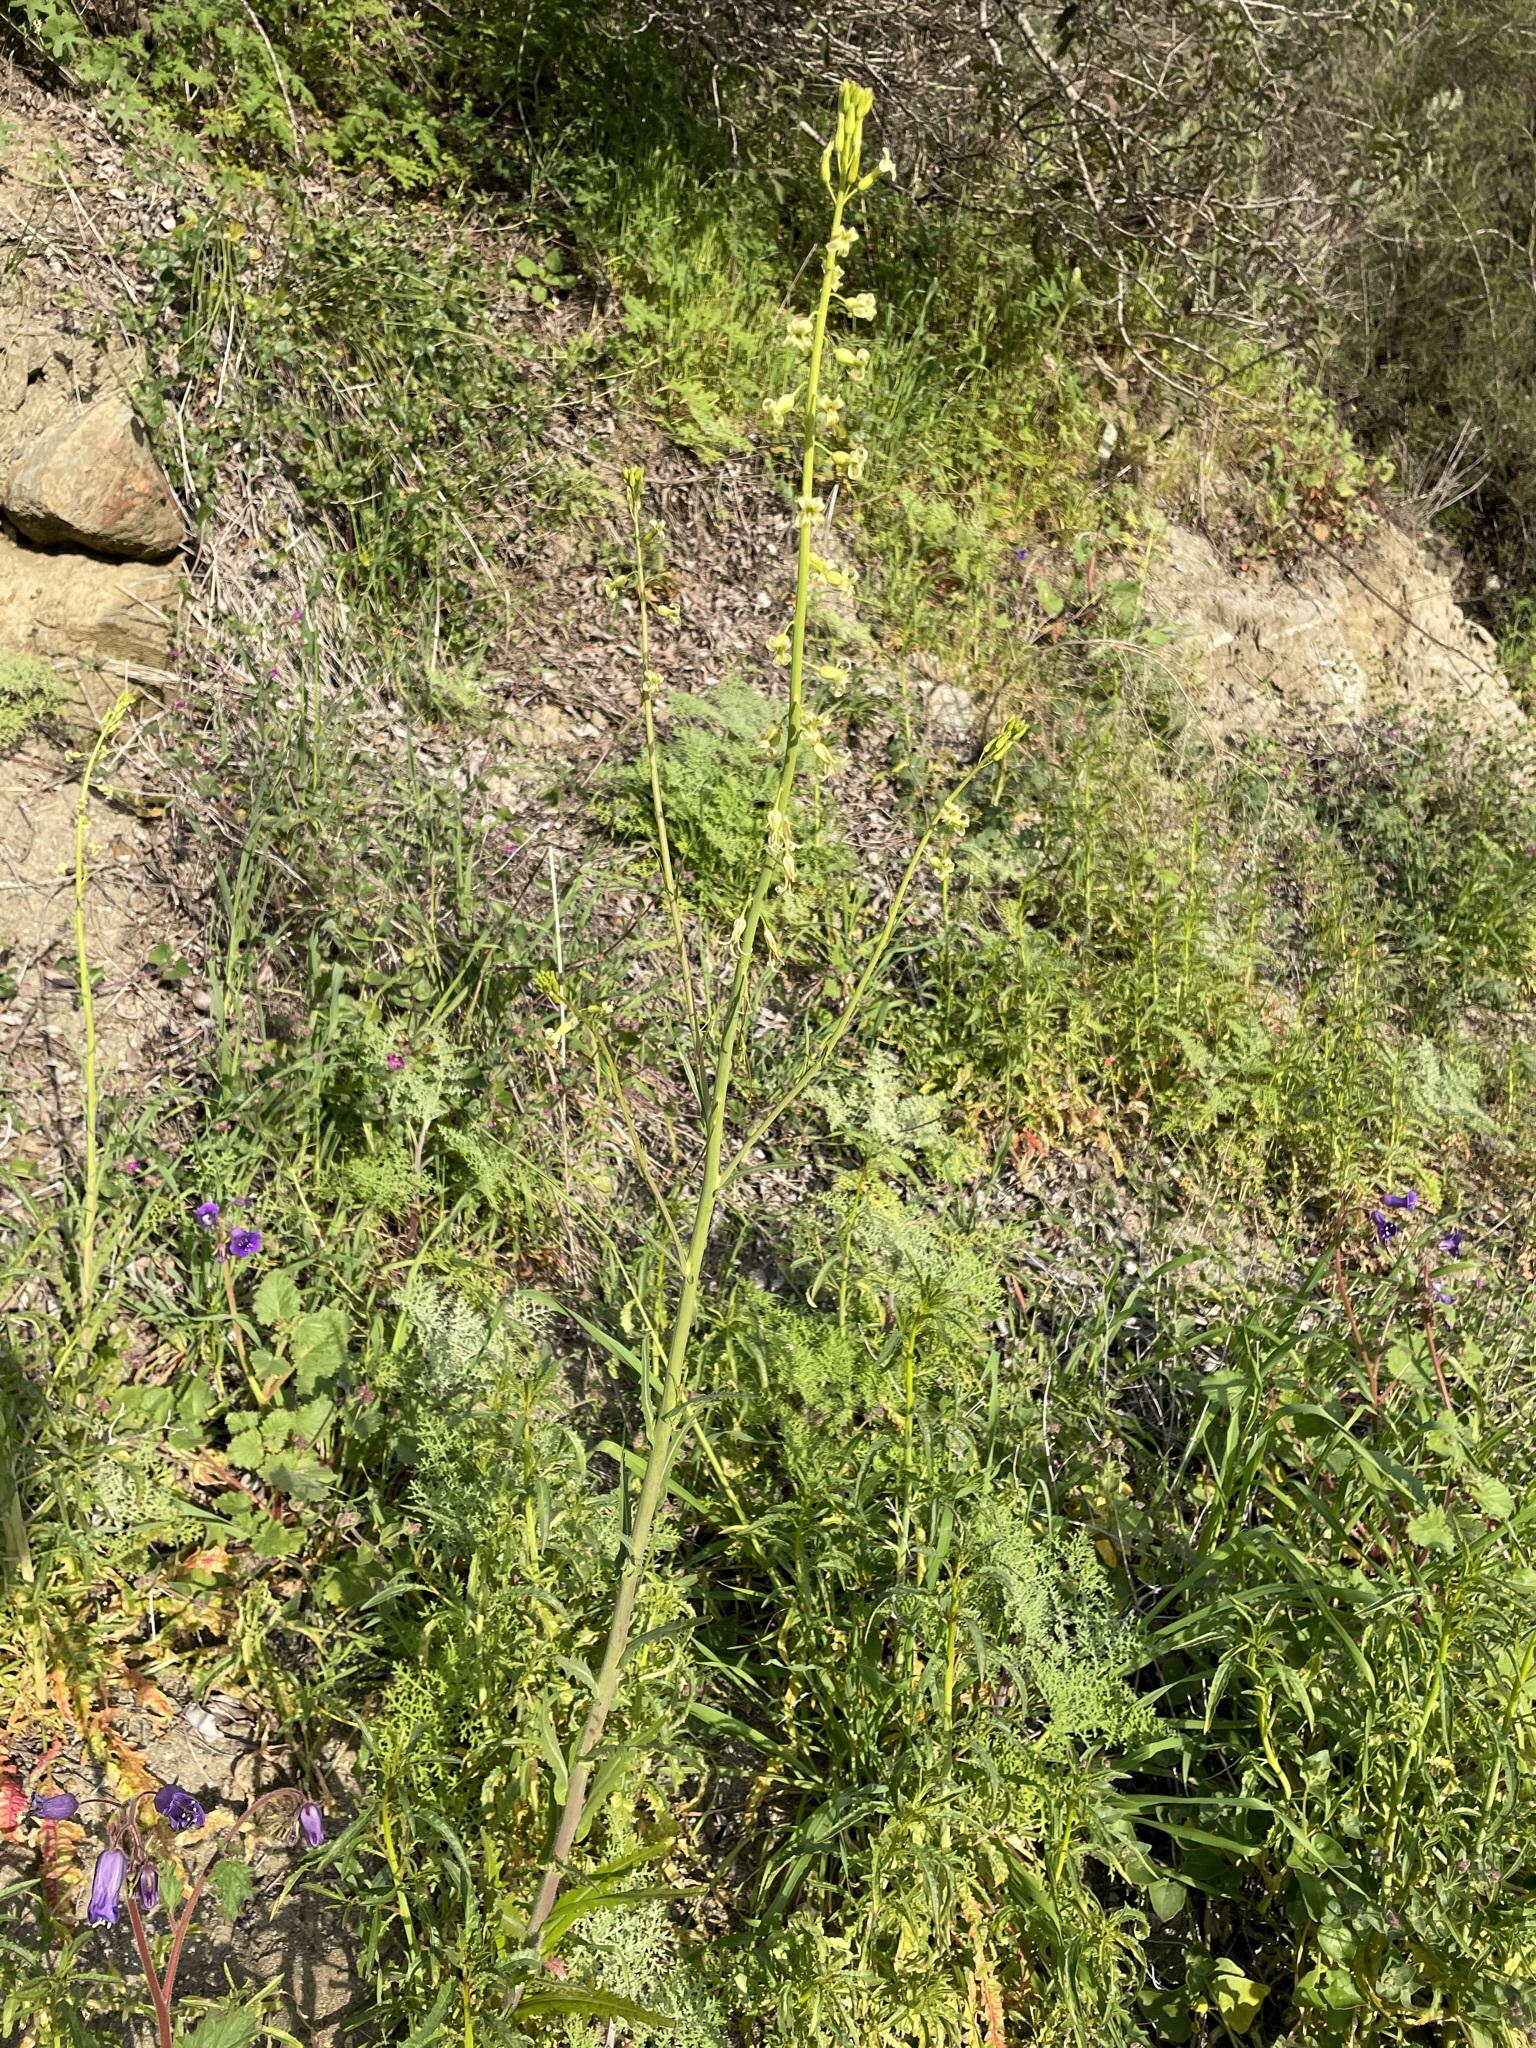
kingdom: Plantae
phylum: Tracheophyta
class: Magnoliopsida
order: Brassicales
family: Brassicaceae
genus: Streptanthus
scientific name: Streptanthus heterophyllus
